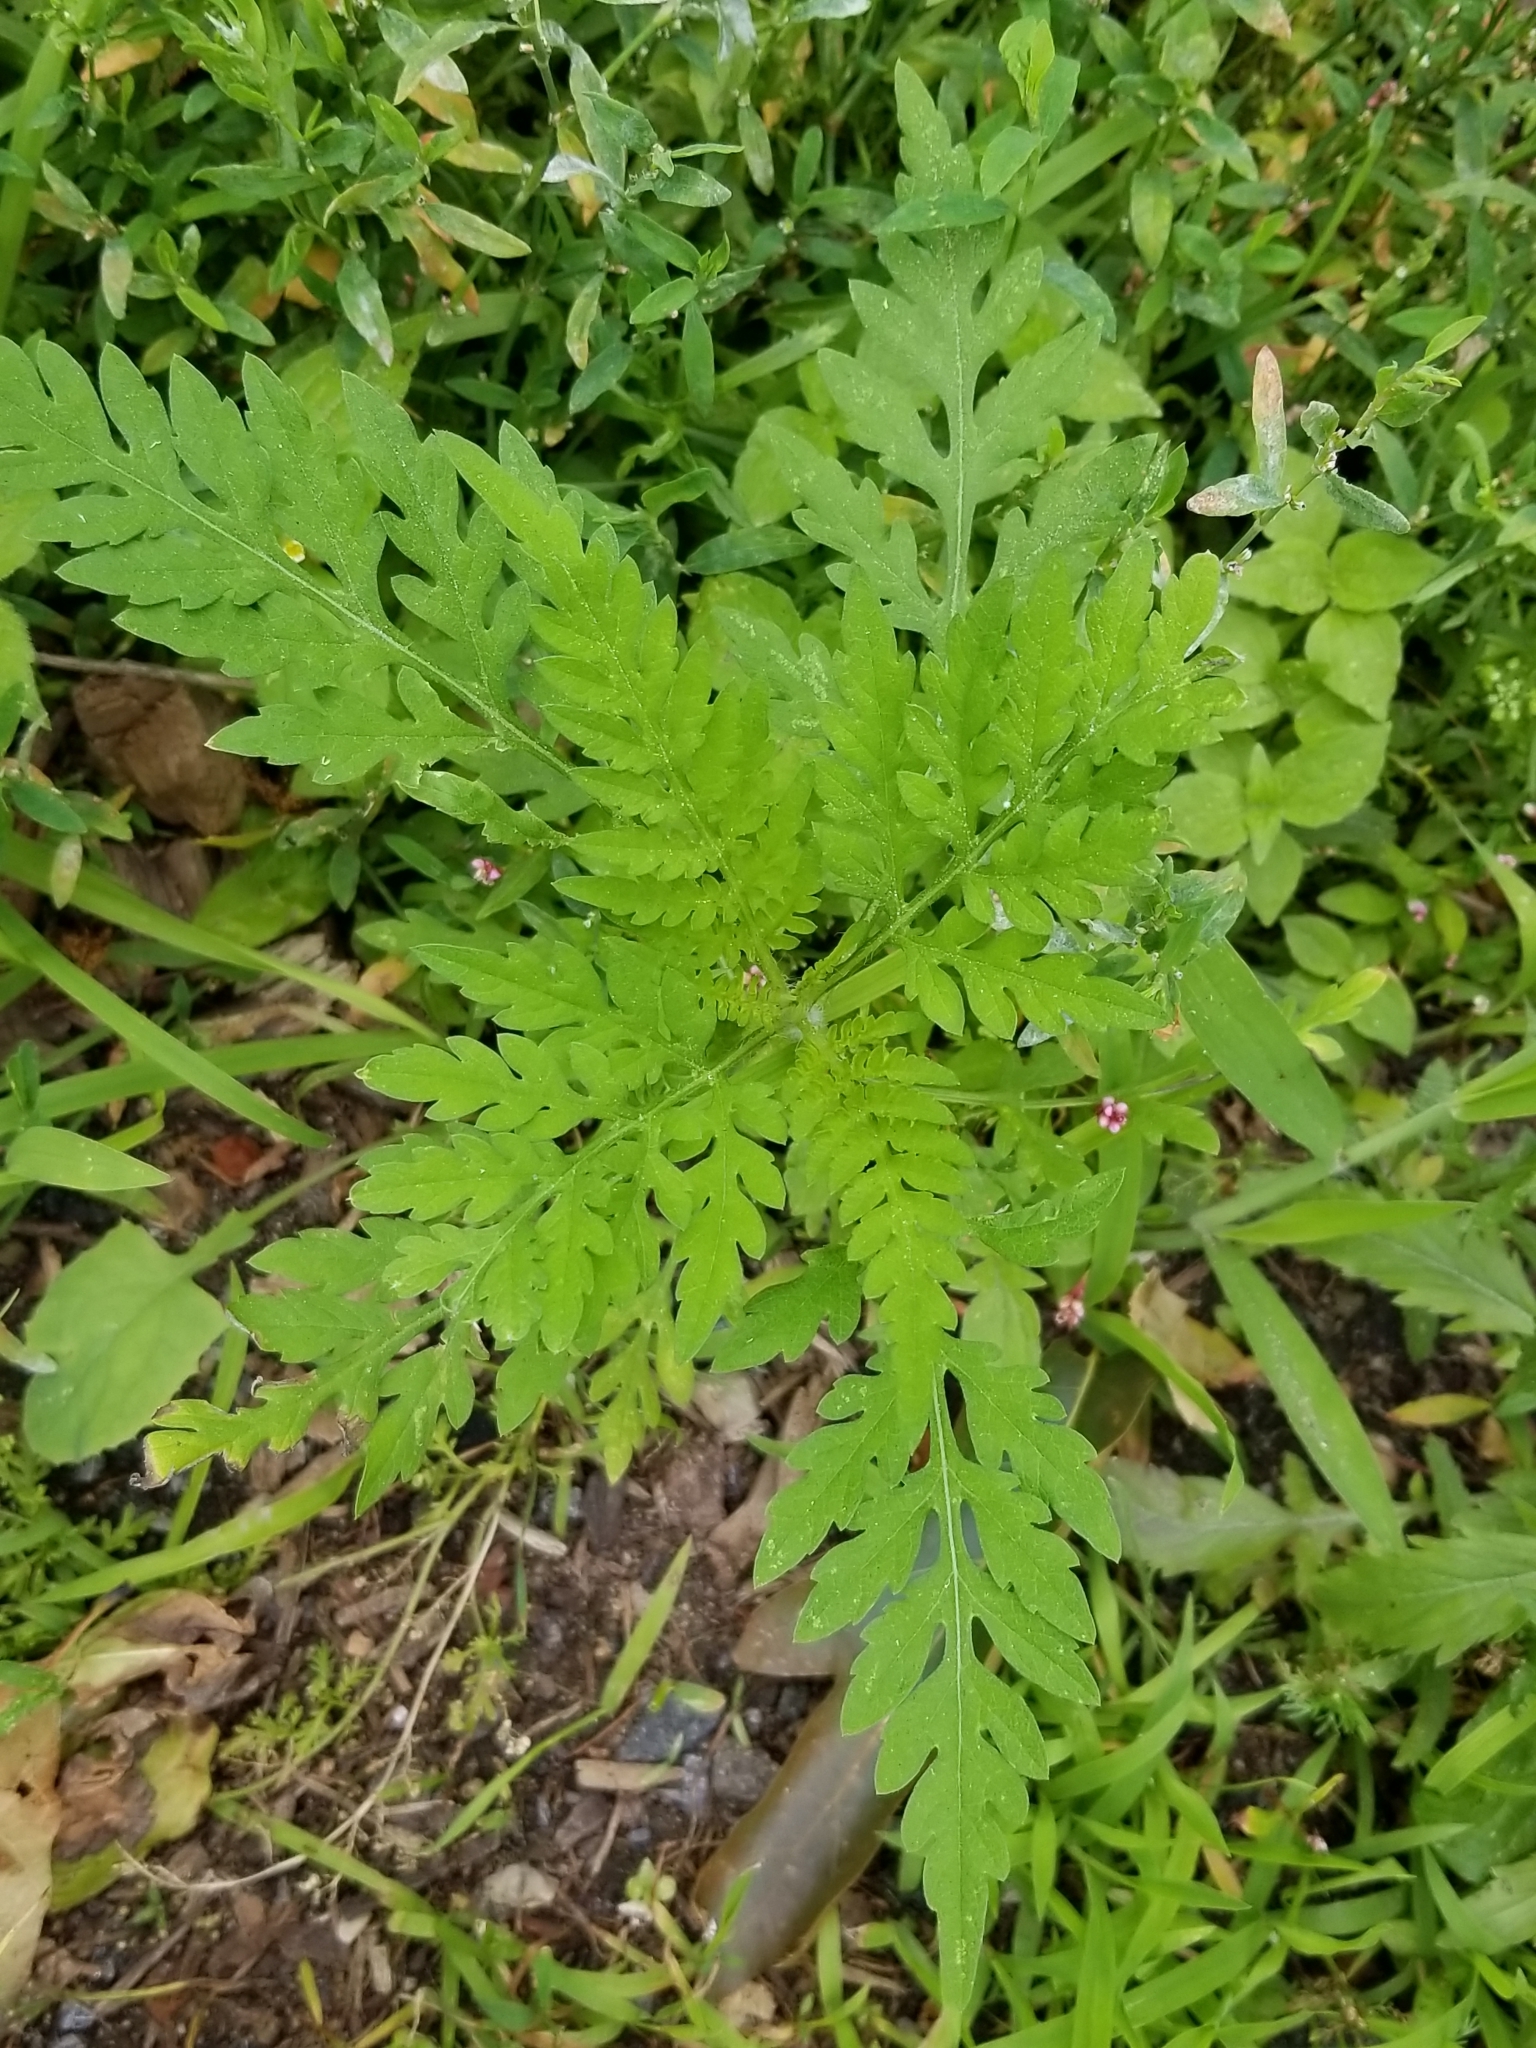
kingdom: Plantae
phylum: Tracheophyta
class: Magnoliopsida
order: Asterales
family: Asteraceae
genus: Ambrosia
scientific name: Ambrosia artemisiifolia
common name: Annual ragweed
